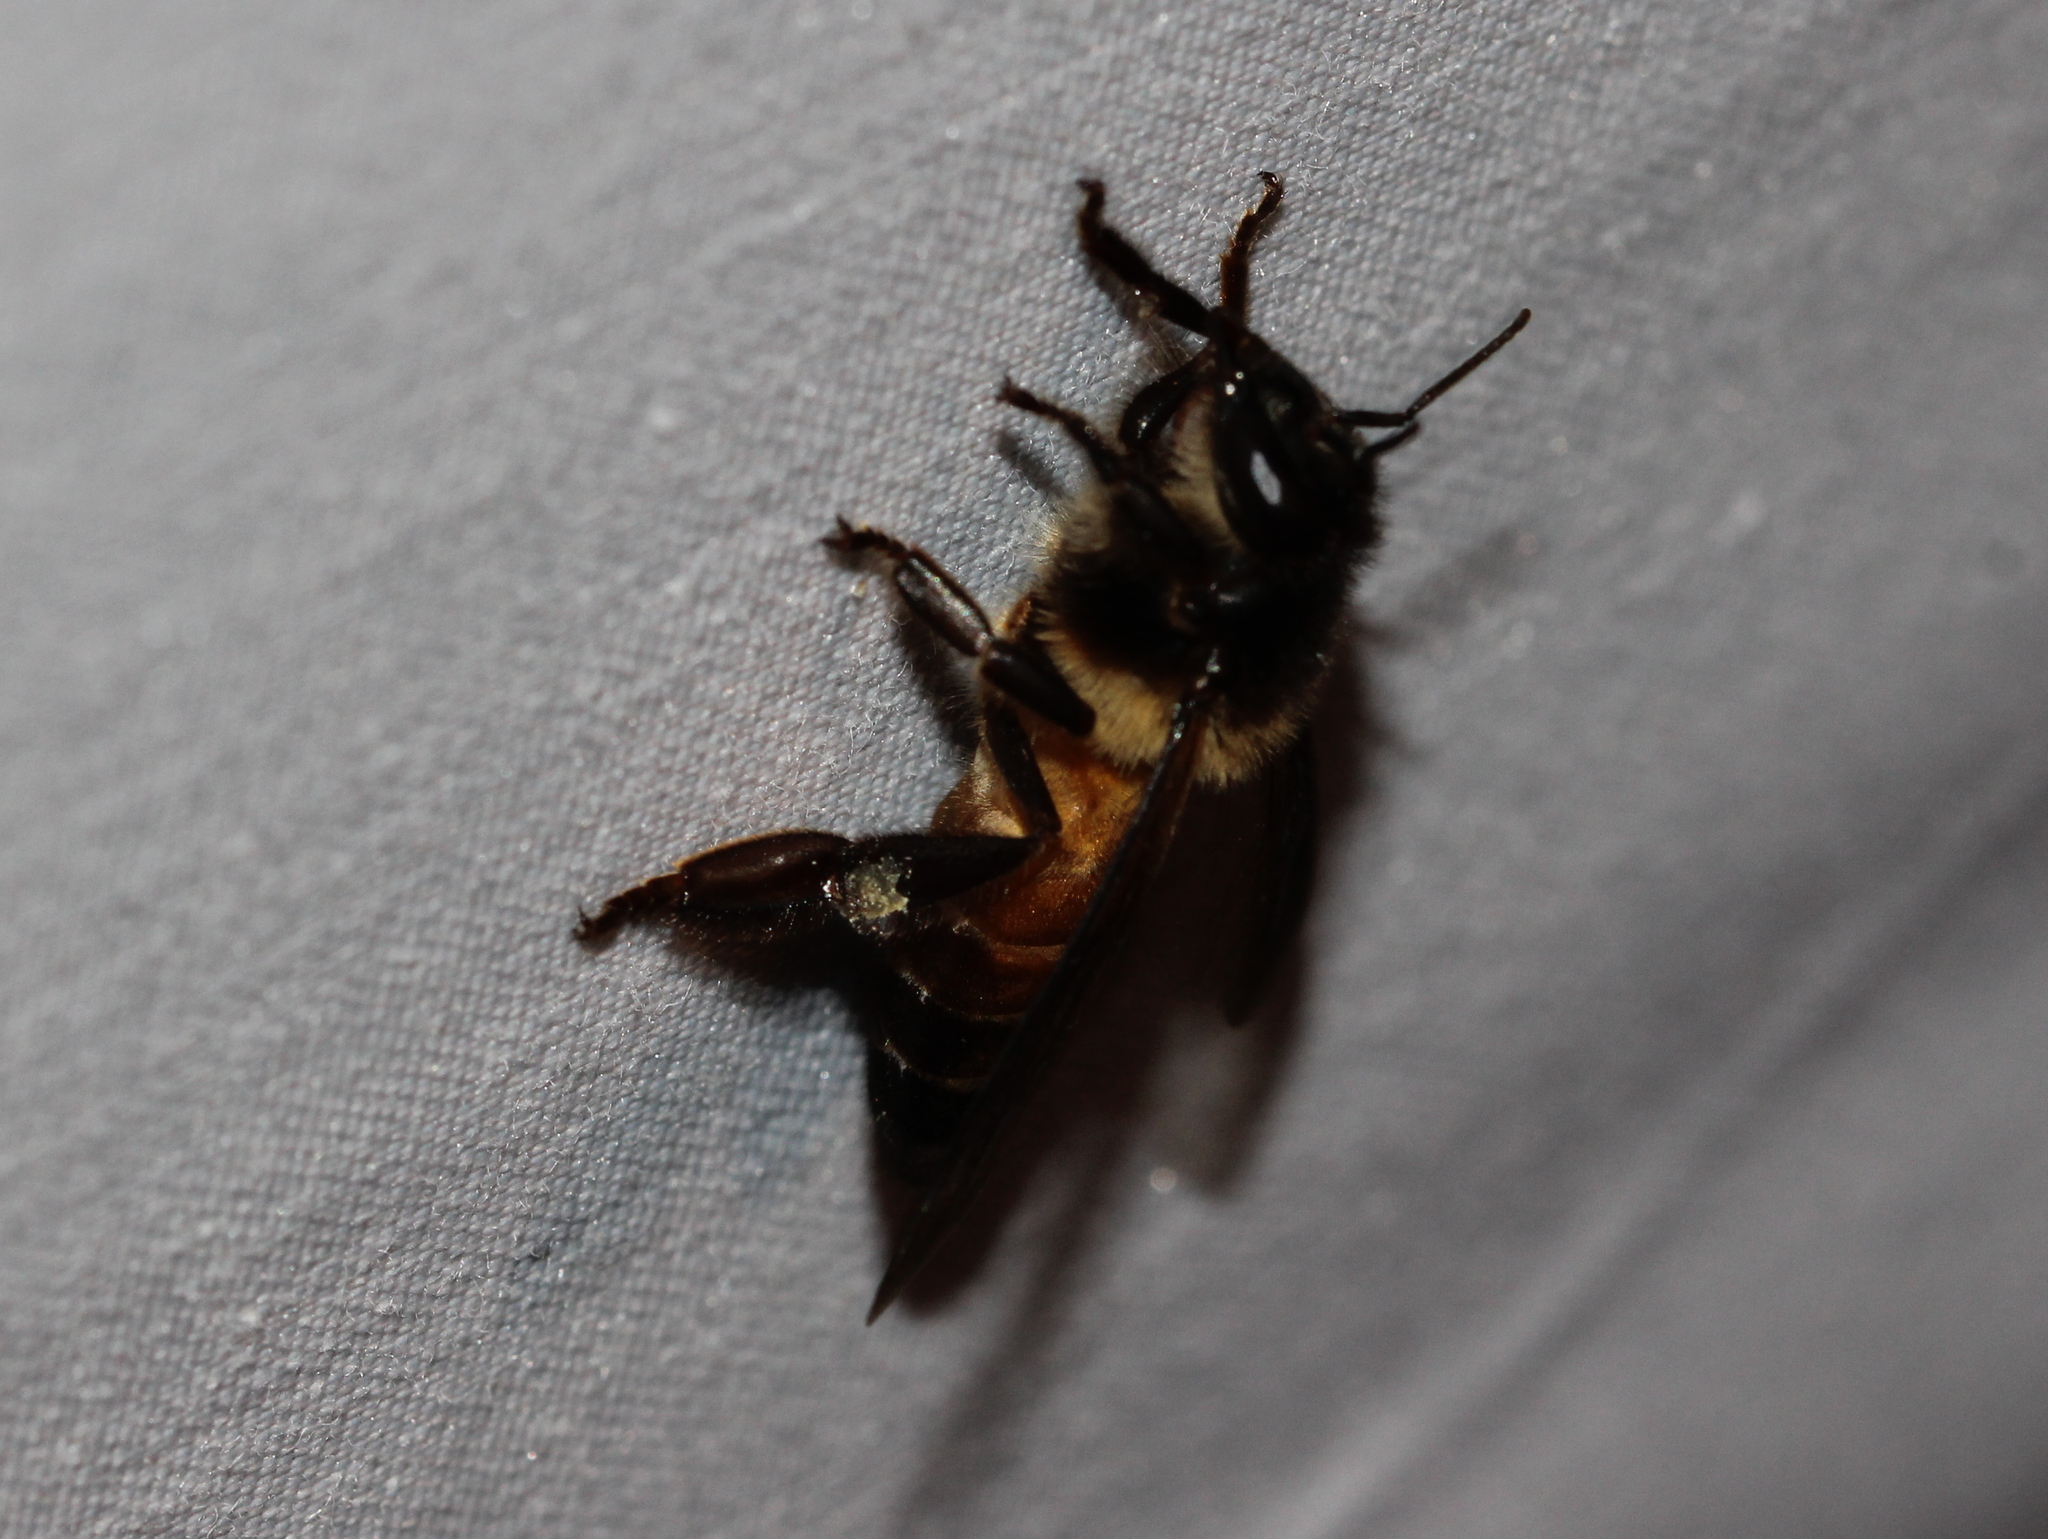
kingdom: Animalia
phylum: Arthropoda
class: Insecta
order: Hymenoptera
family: Apidae
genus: Apis
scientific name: Apis dorsata
